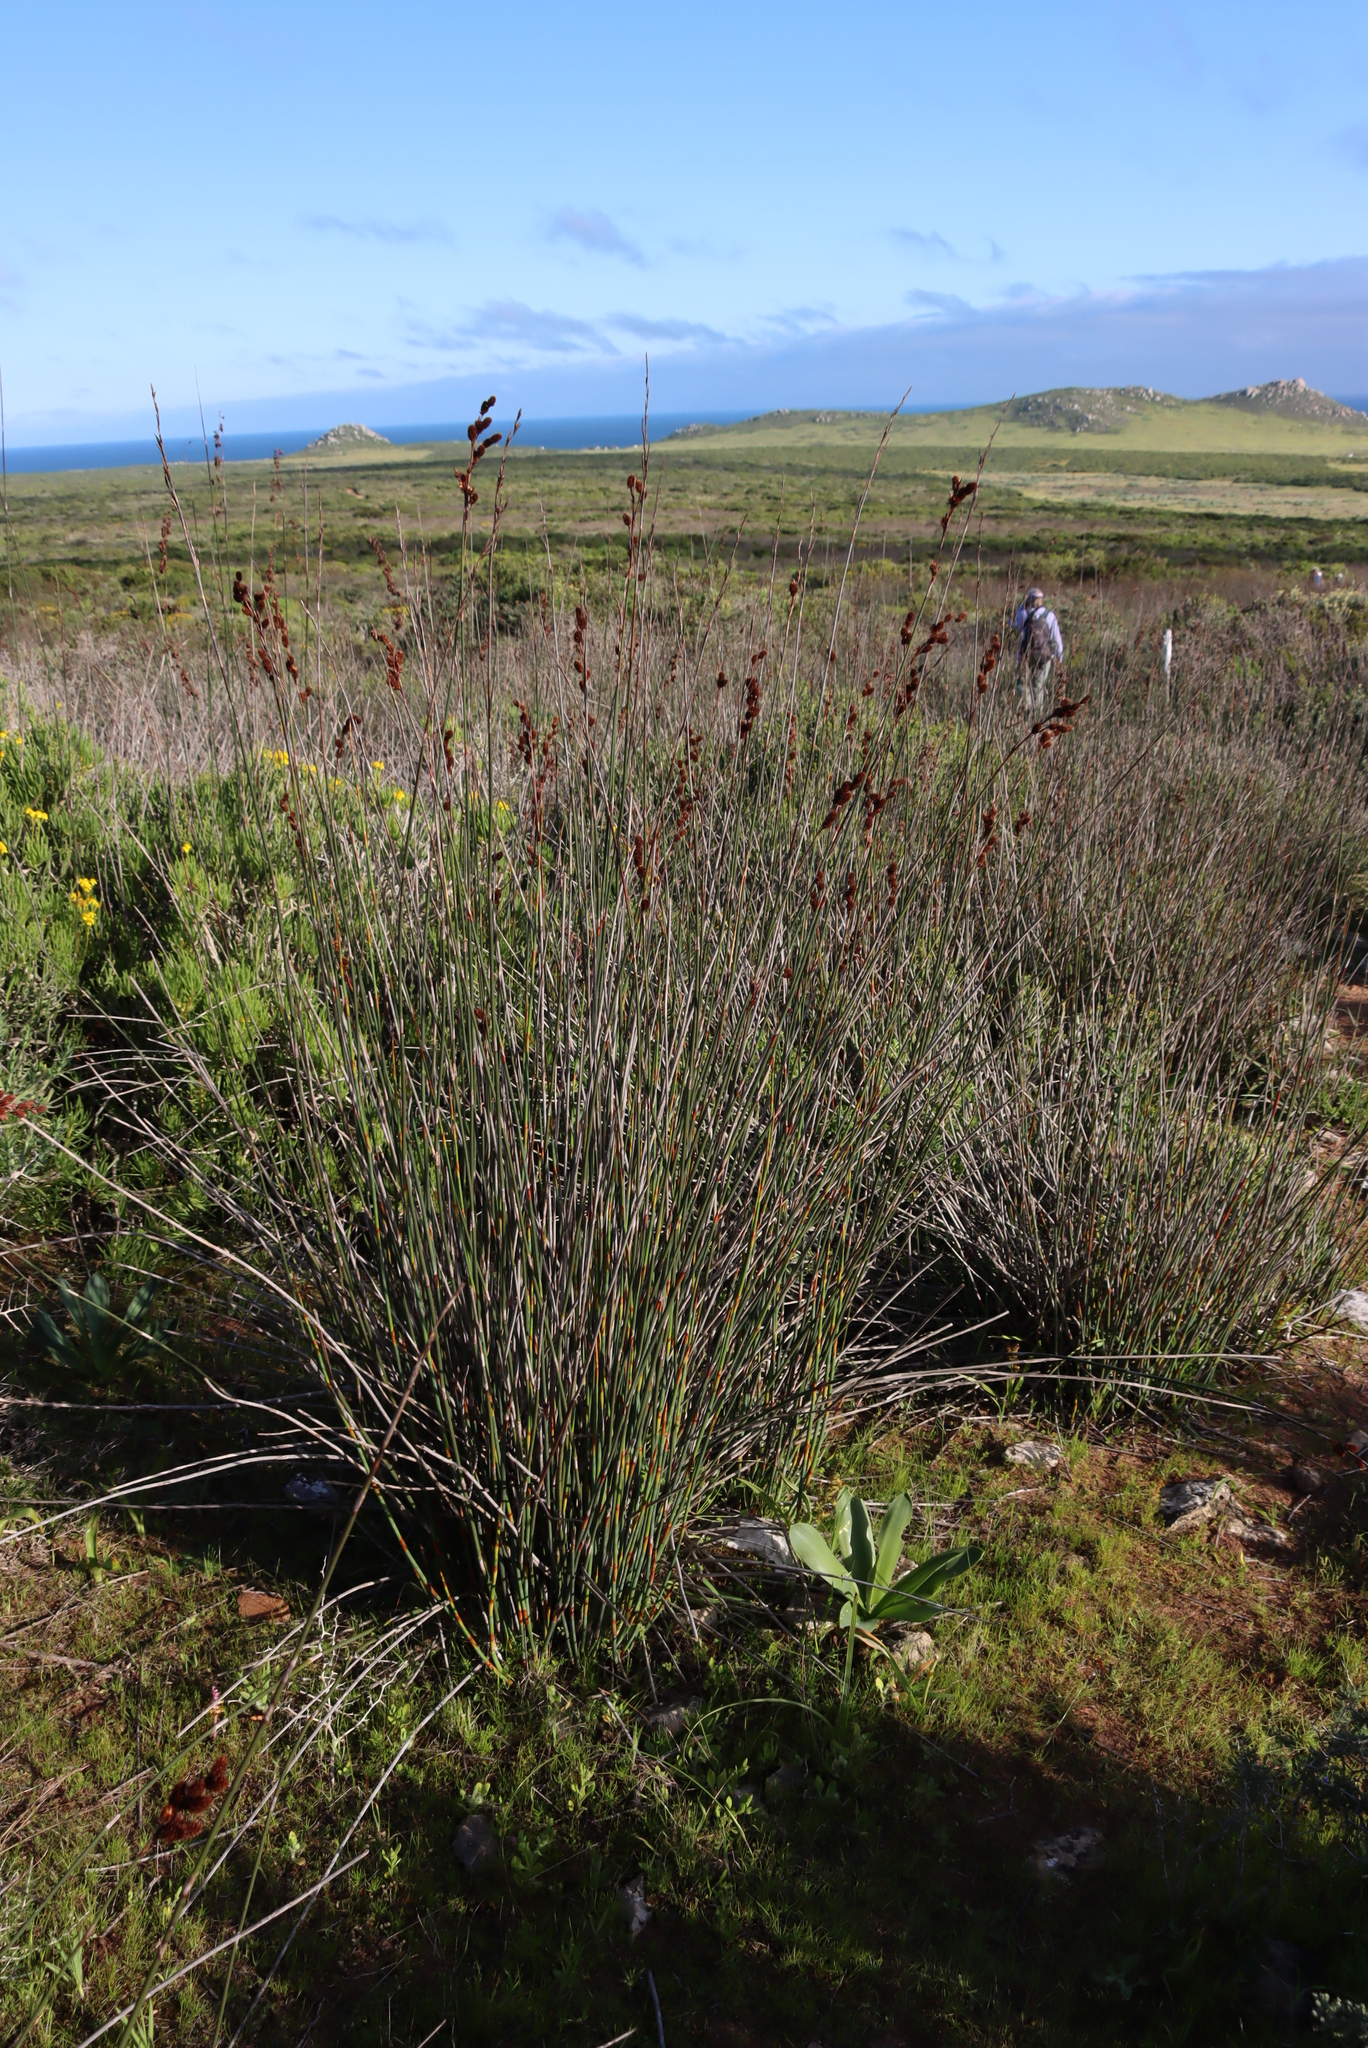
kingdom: Plantae
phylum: Tracheophyta
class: Liliopsida
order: Poales
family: Restionaceae
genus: Thamnochortus
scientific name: Thamnochortus spicigerus
